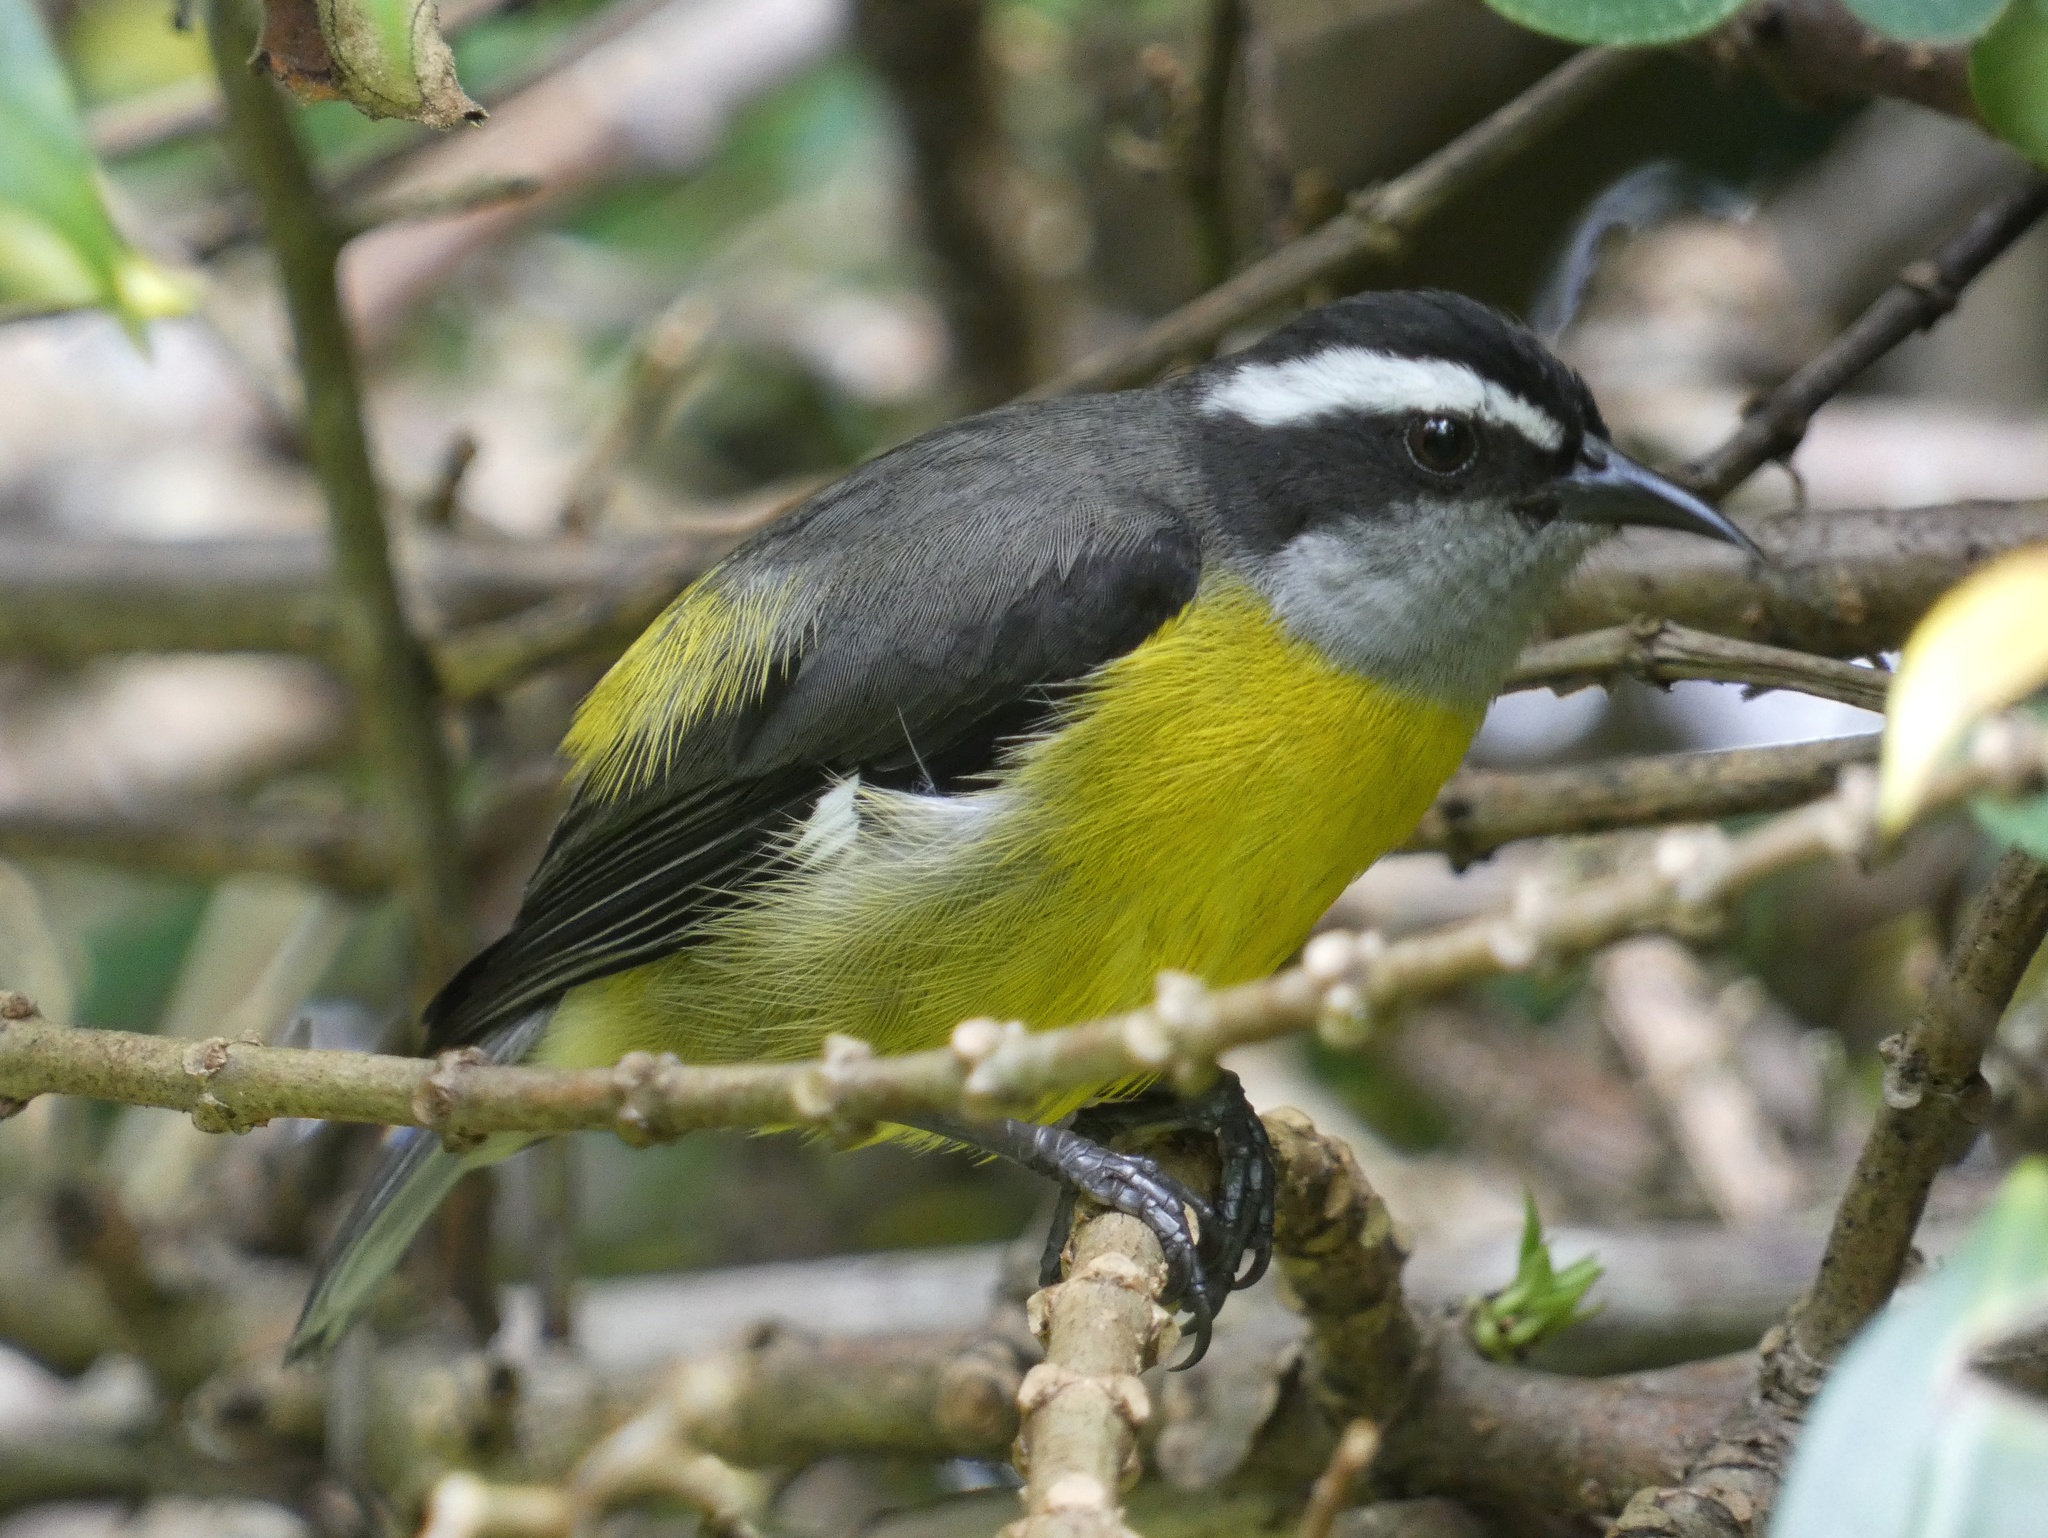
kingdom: Animalia
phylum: Chordata
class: Aves
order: Passeriformes
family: Thraupidae
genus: Coereba
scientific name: Coereba flaveola
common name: Bananaquit
